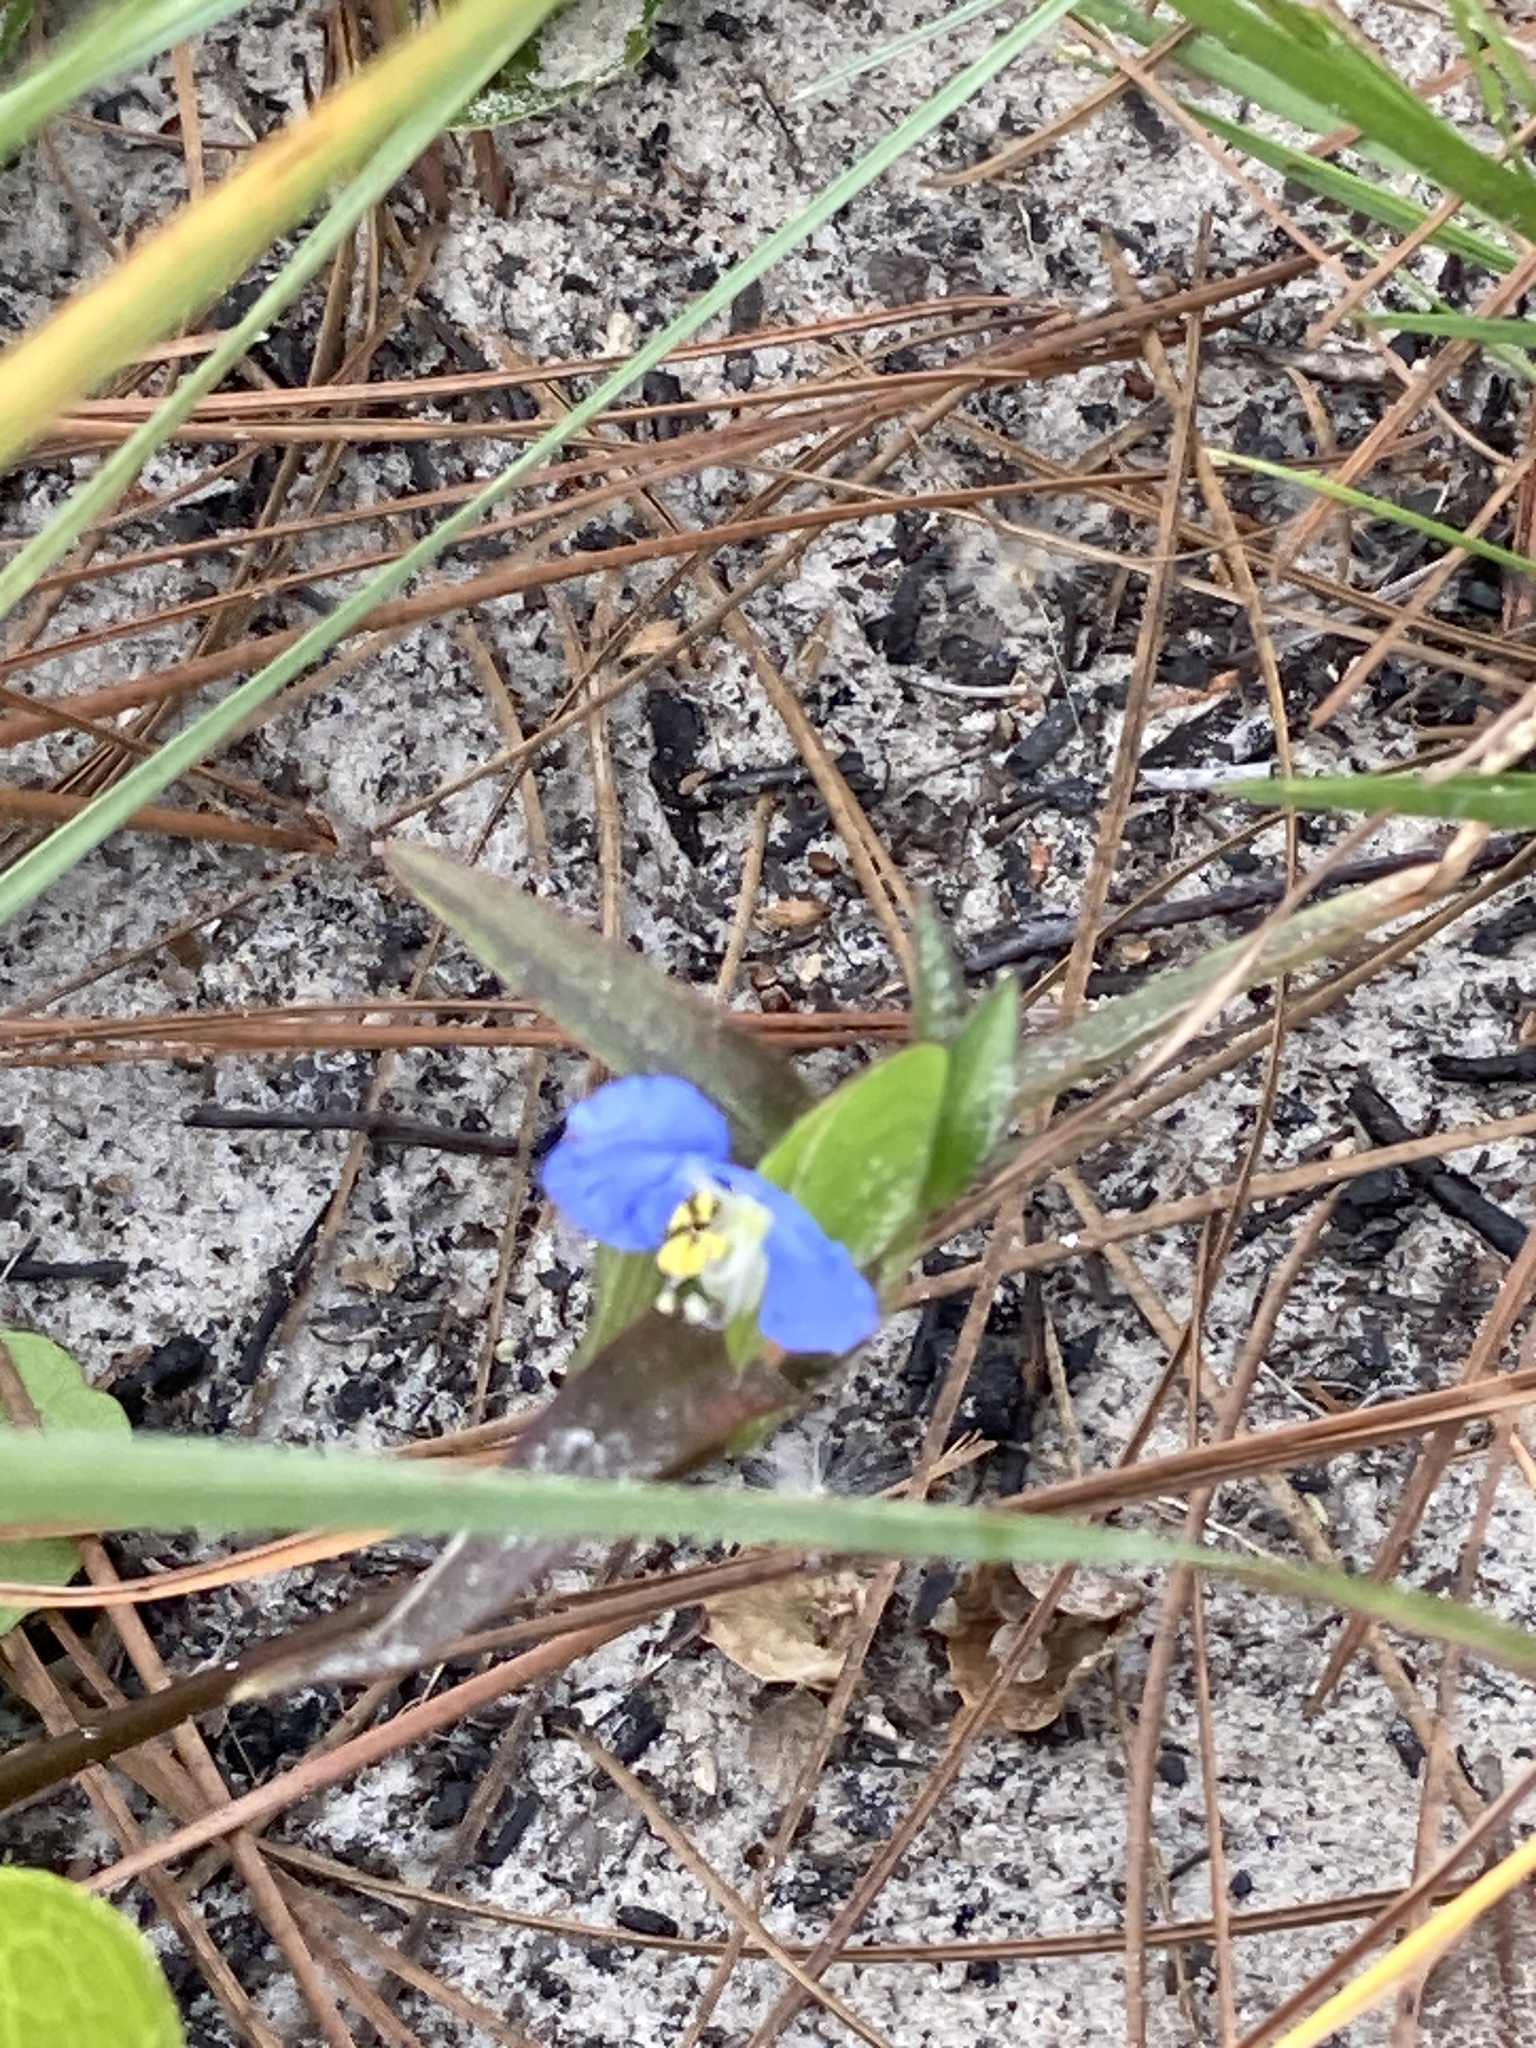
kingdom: Plantae
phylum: Tracheophyta
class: Liliopsida
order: Commelinales
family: Commelinaceae
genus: Commelina
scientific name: Commelina erecta
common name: Blousel blommetjie
